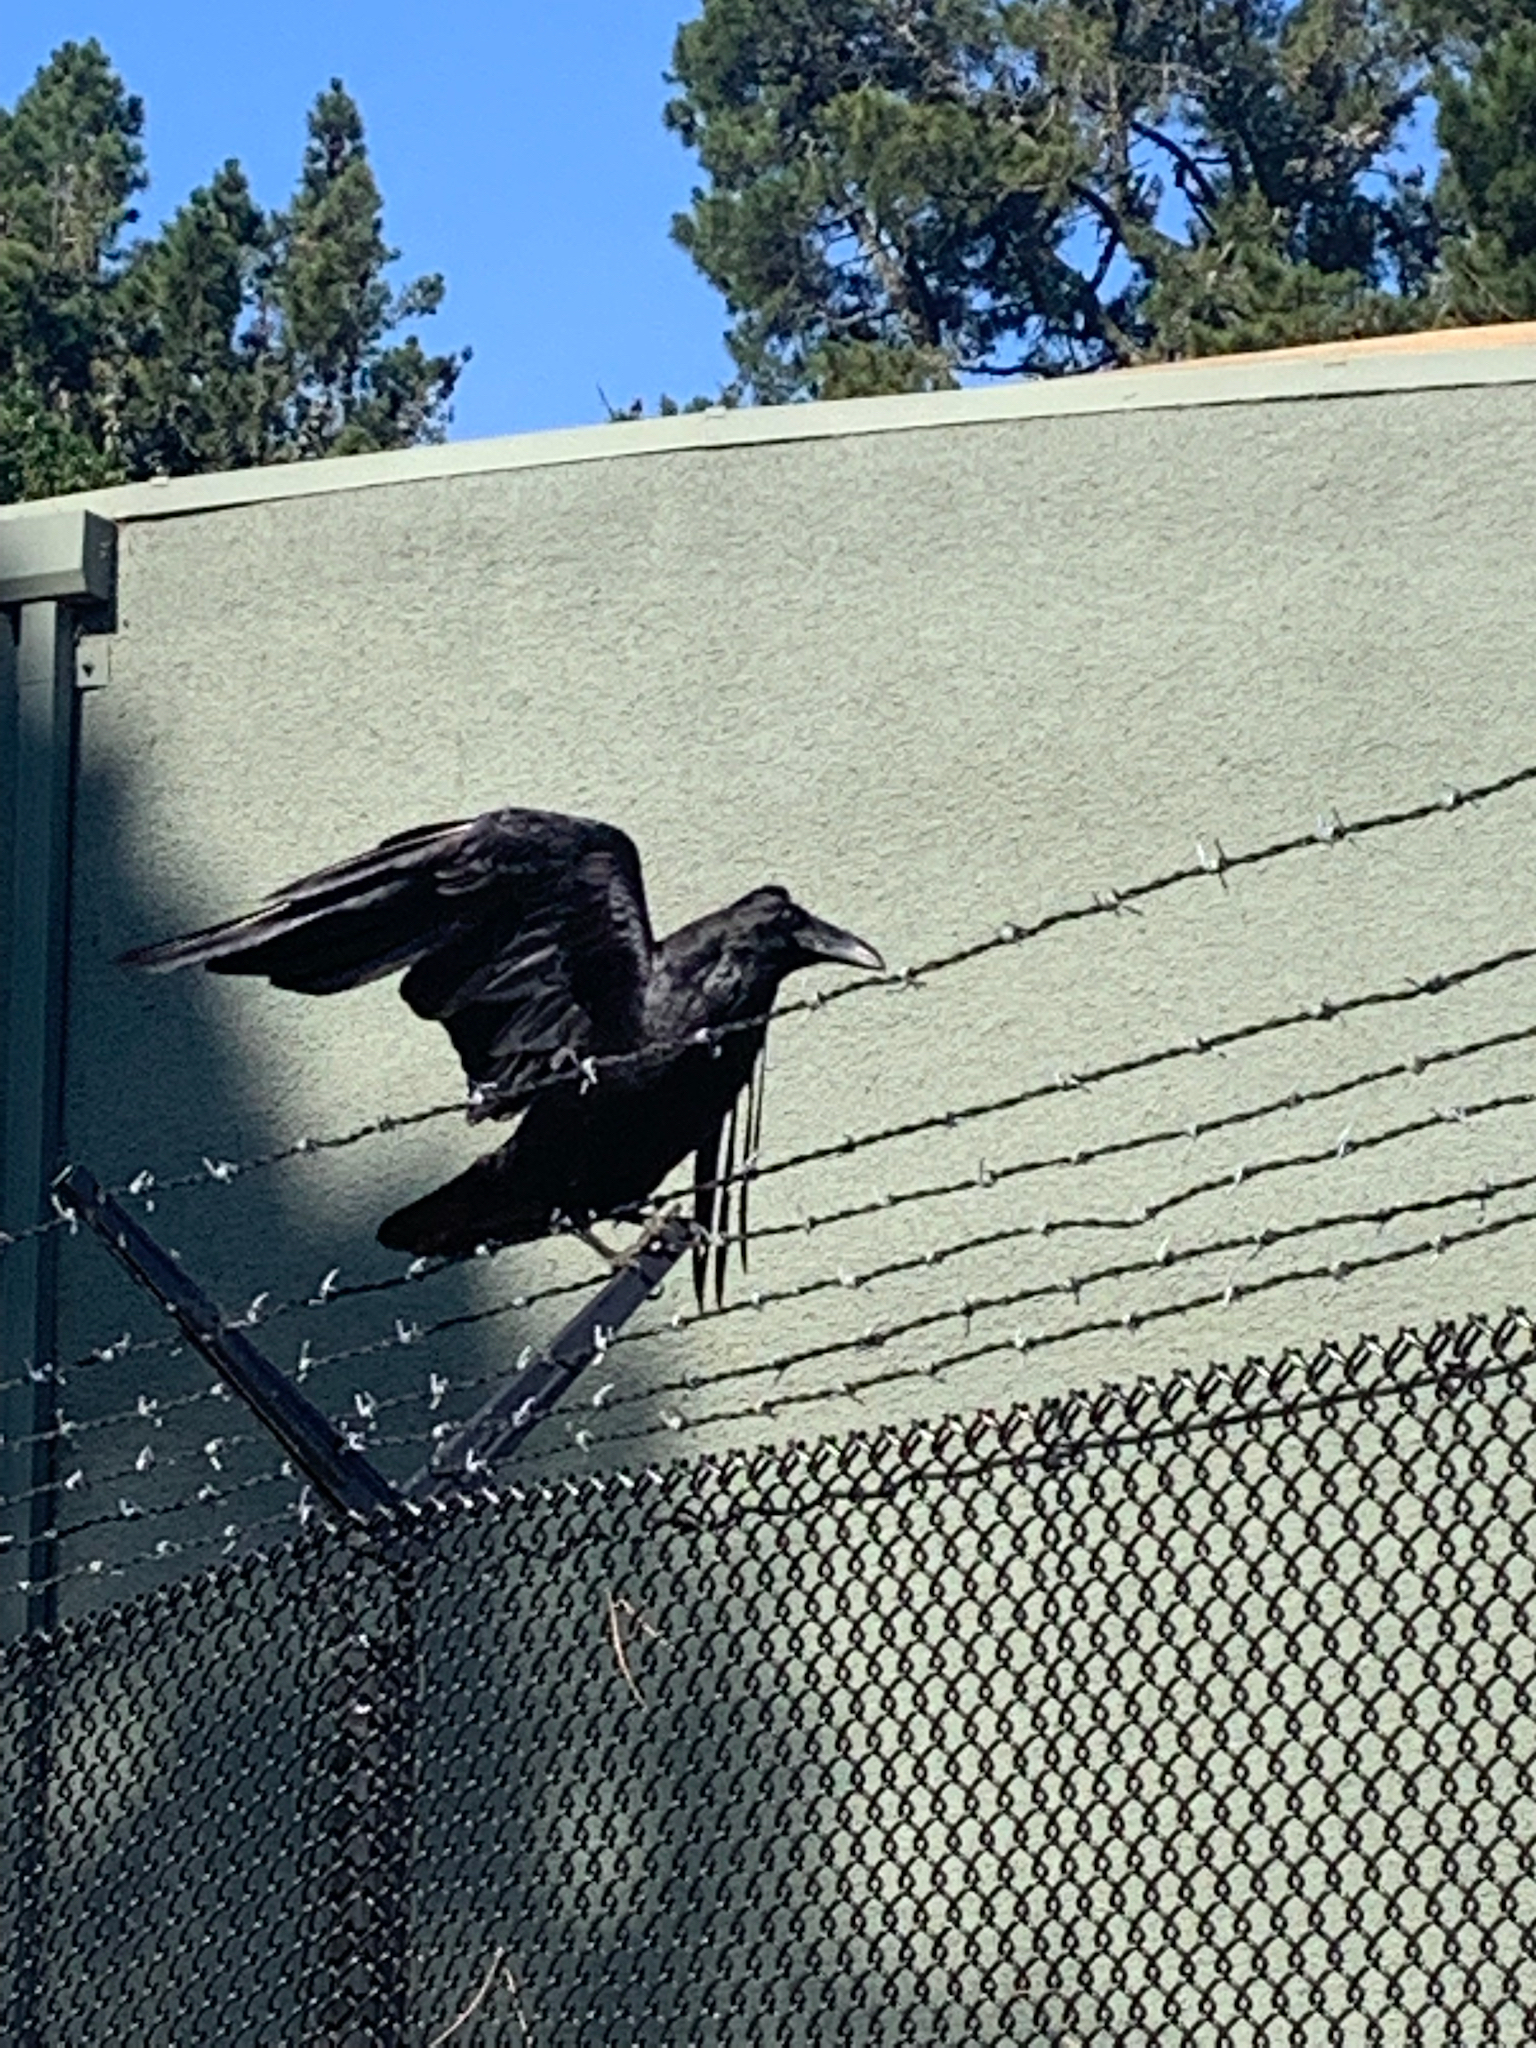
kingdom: Animalia
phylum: Chordata
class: Aves
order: Passeriformes
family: Corvidae
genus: Corvus
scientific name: Corvus corax
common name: Common raven
